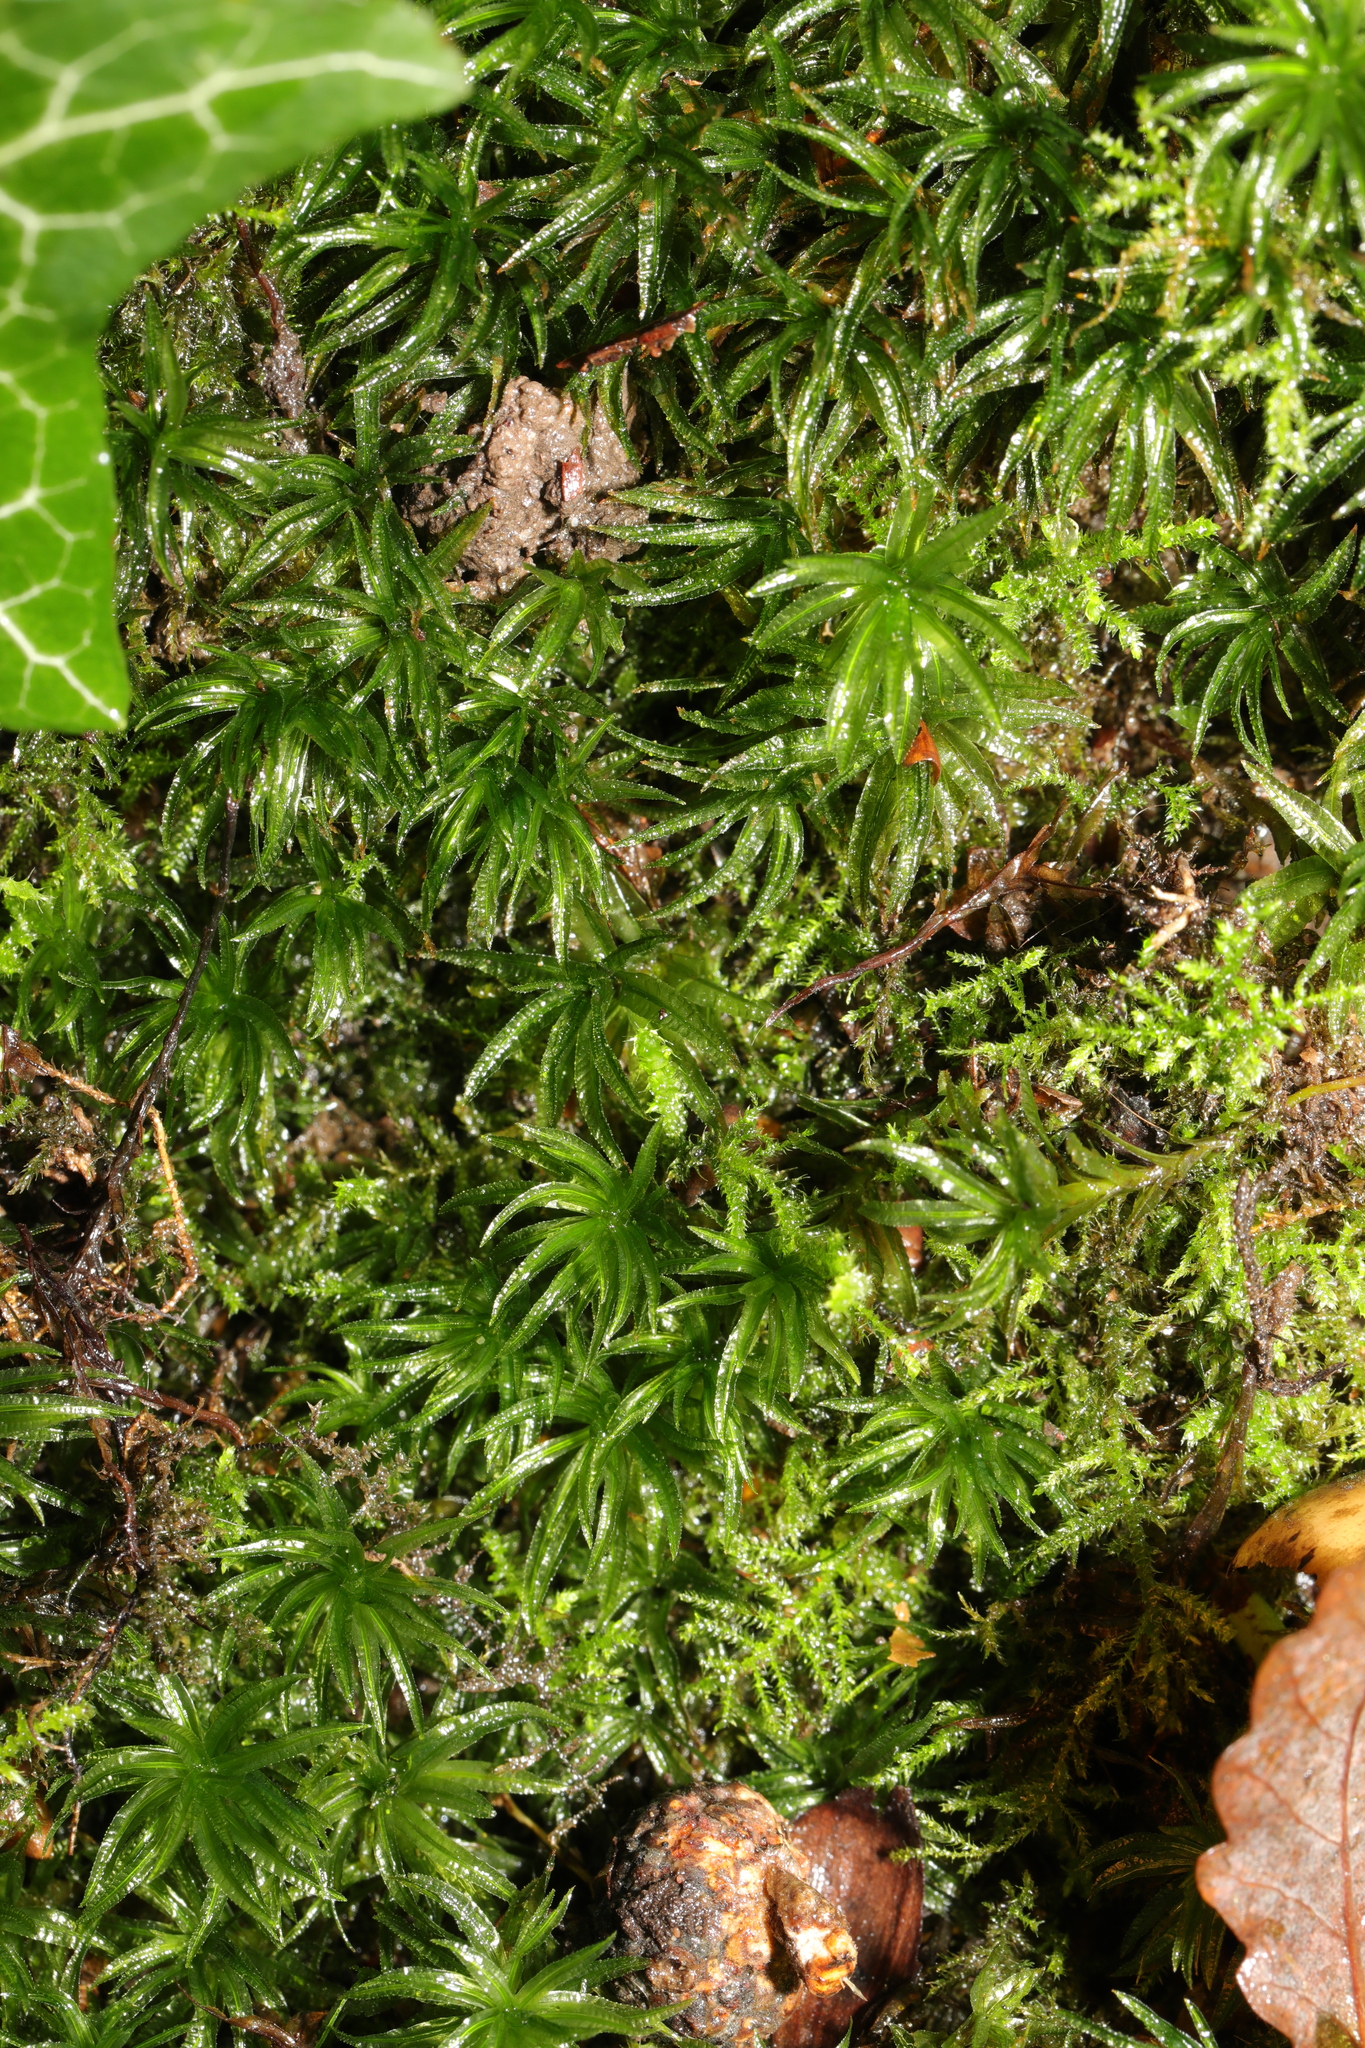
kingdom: Plantae
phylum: Bryophyta
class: Polytrichopsida
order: Polytrichales
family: Polytrichaceae
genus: Atrichum
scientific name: Atrichum undulatum
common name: Common smoothcap
